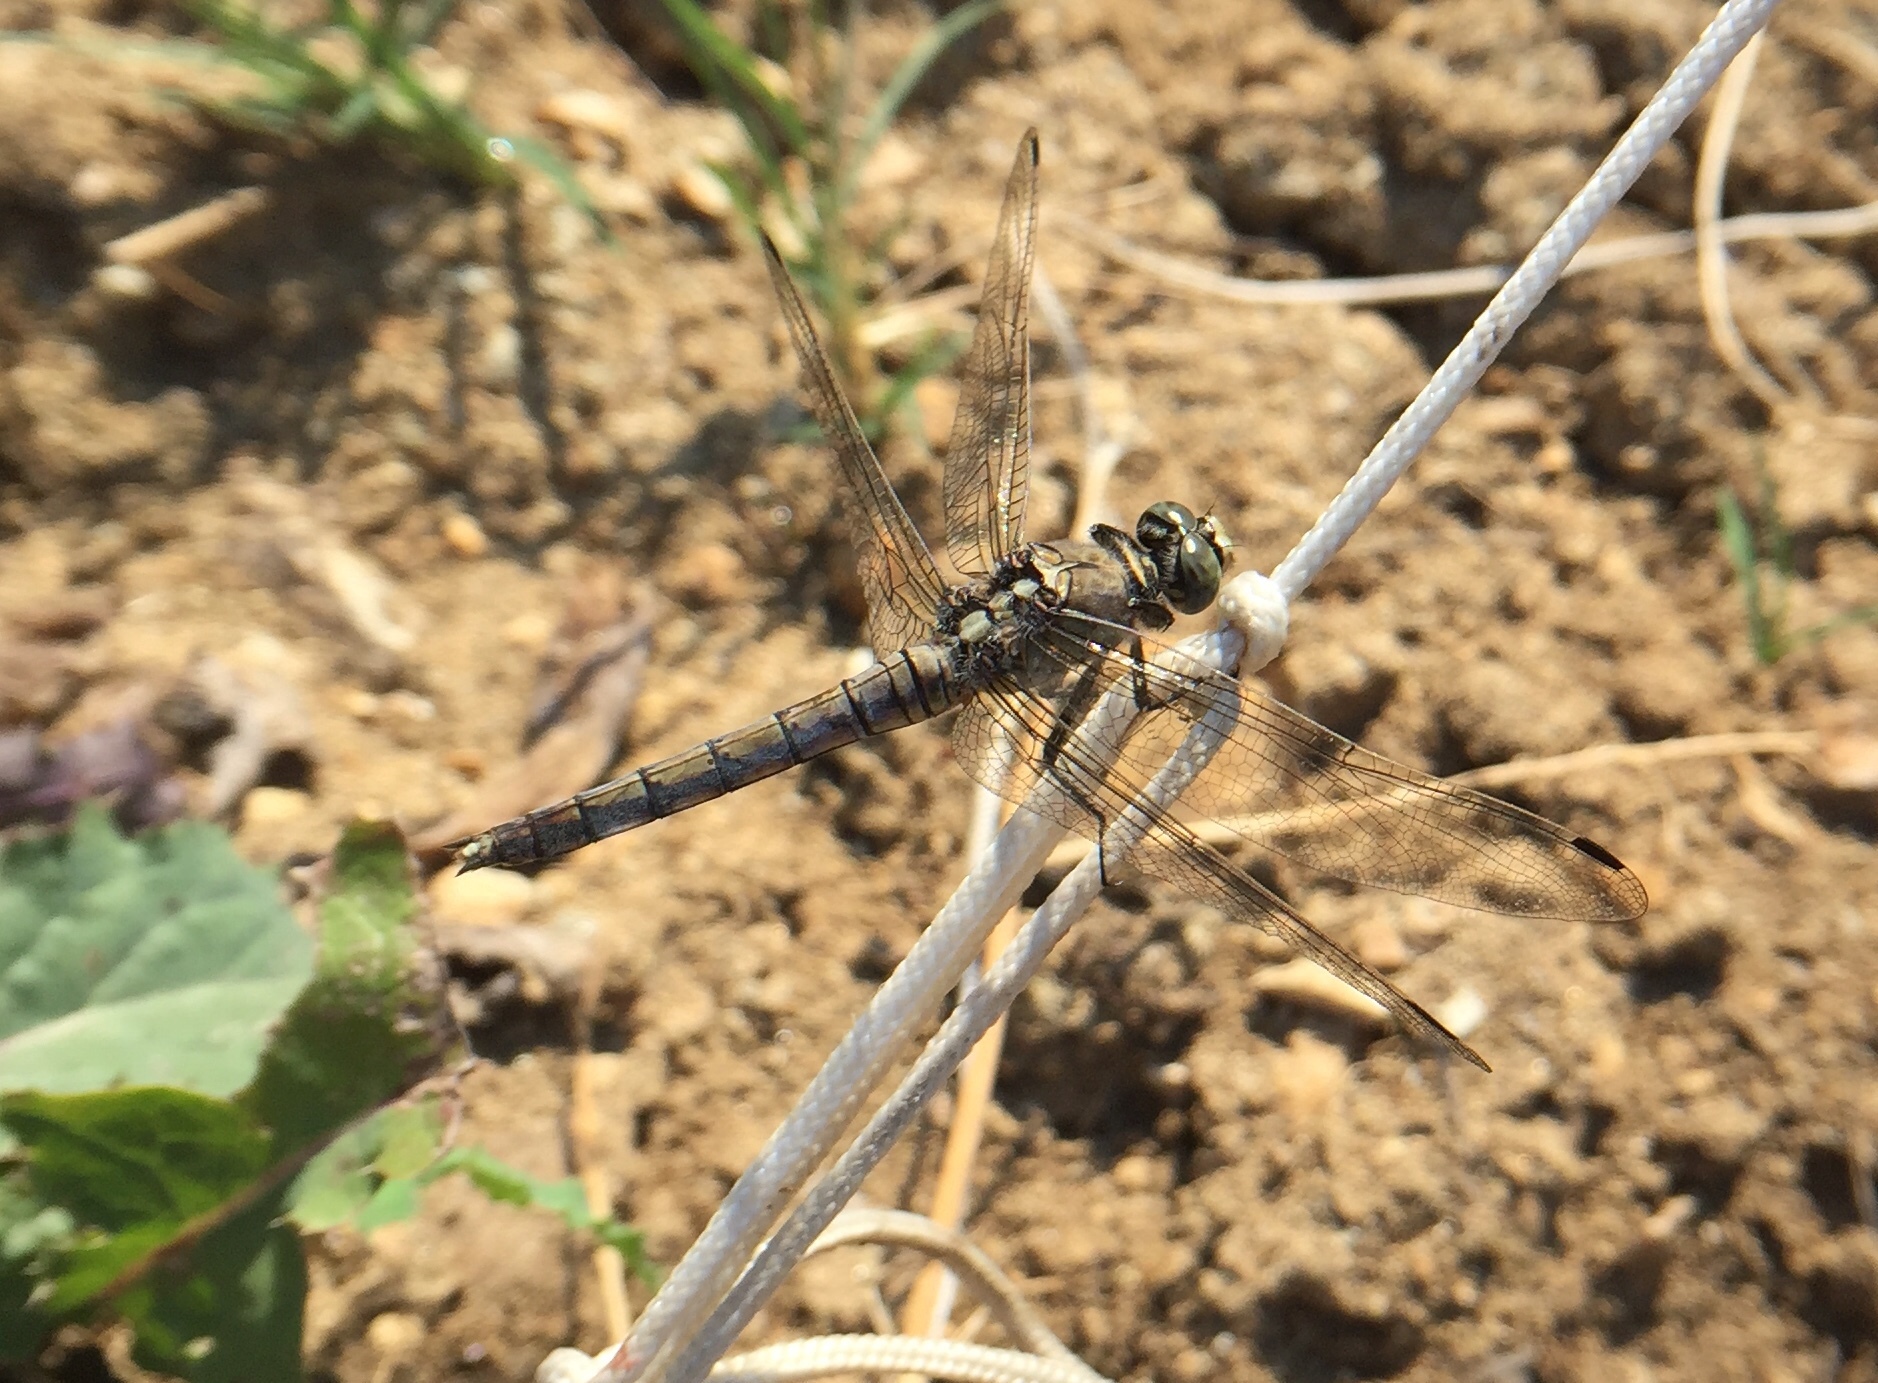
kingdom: Animalia
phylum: Arthropoda
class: Insecta
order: Odonata
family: Libellulidae
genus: Orthetrum
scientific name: Orthetrum
